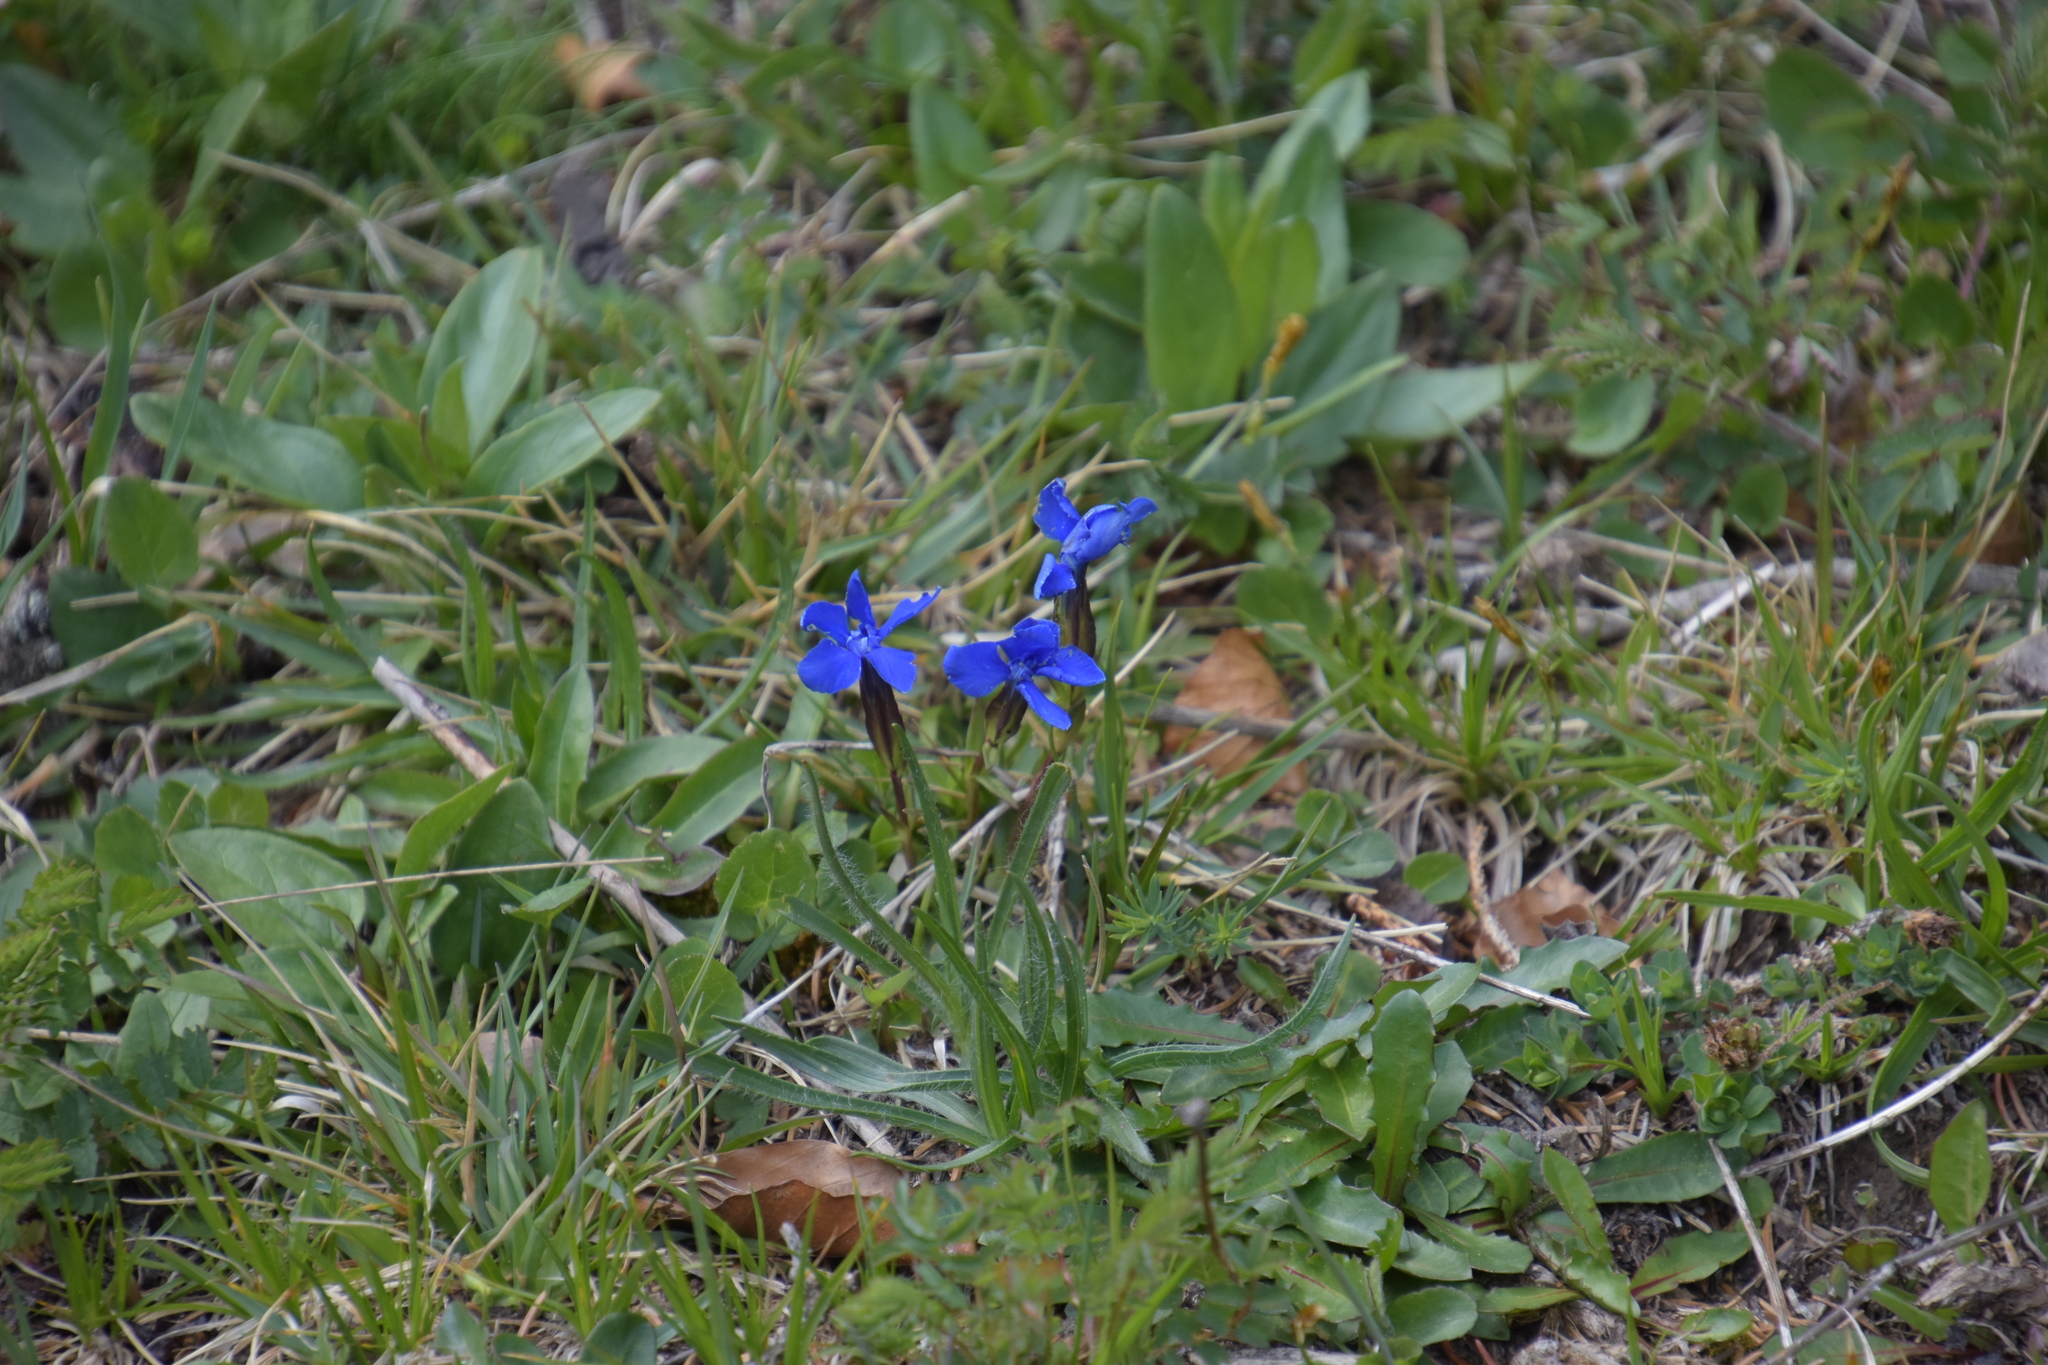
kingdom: Plantae
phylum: Tracheophyta
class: Magnoliopsida
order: Gentianales
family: Gentianaceae
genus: Gentiana
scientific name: Gentiana verna
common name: Spring gentian
